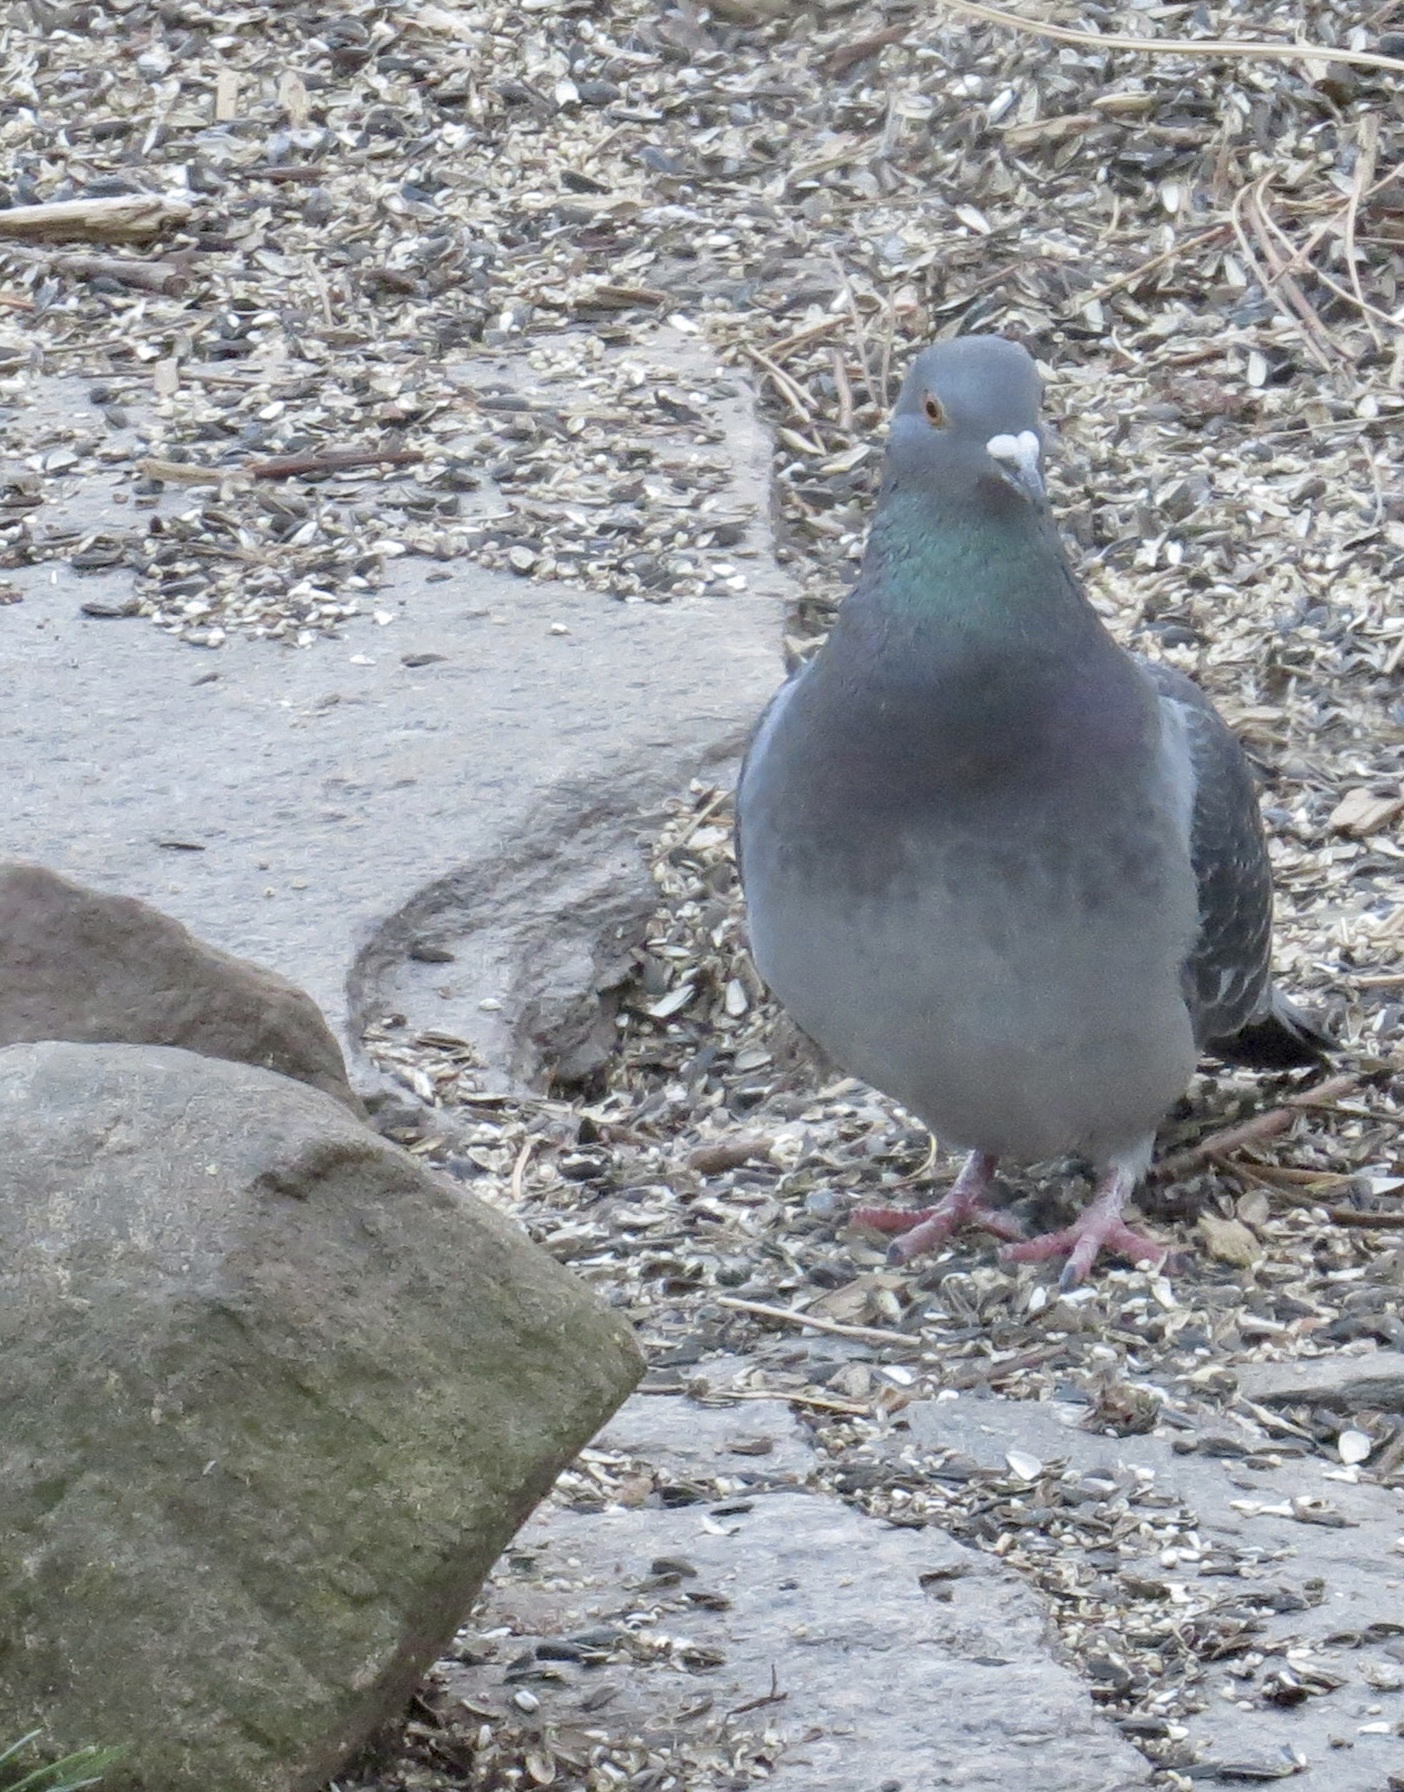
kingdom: Animalia
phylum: Chordata
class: Aves
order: Columbiformes
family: Columbidae
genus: Columba
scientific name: Columba livia
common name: Rock pigeon
